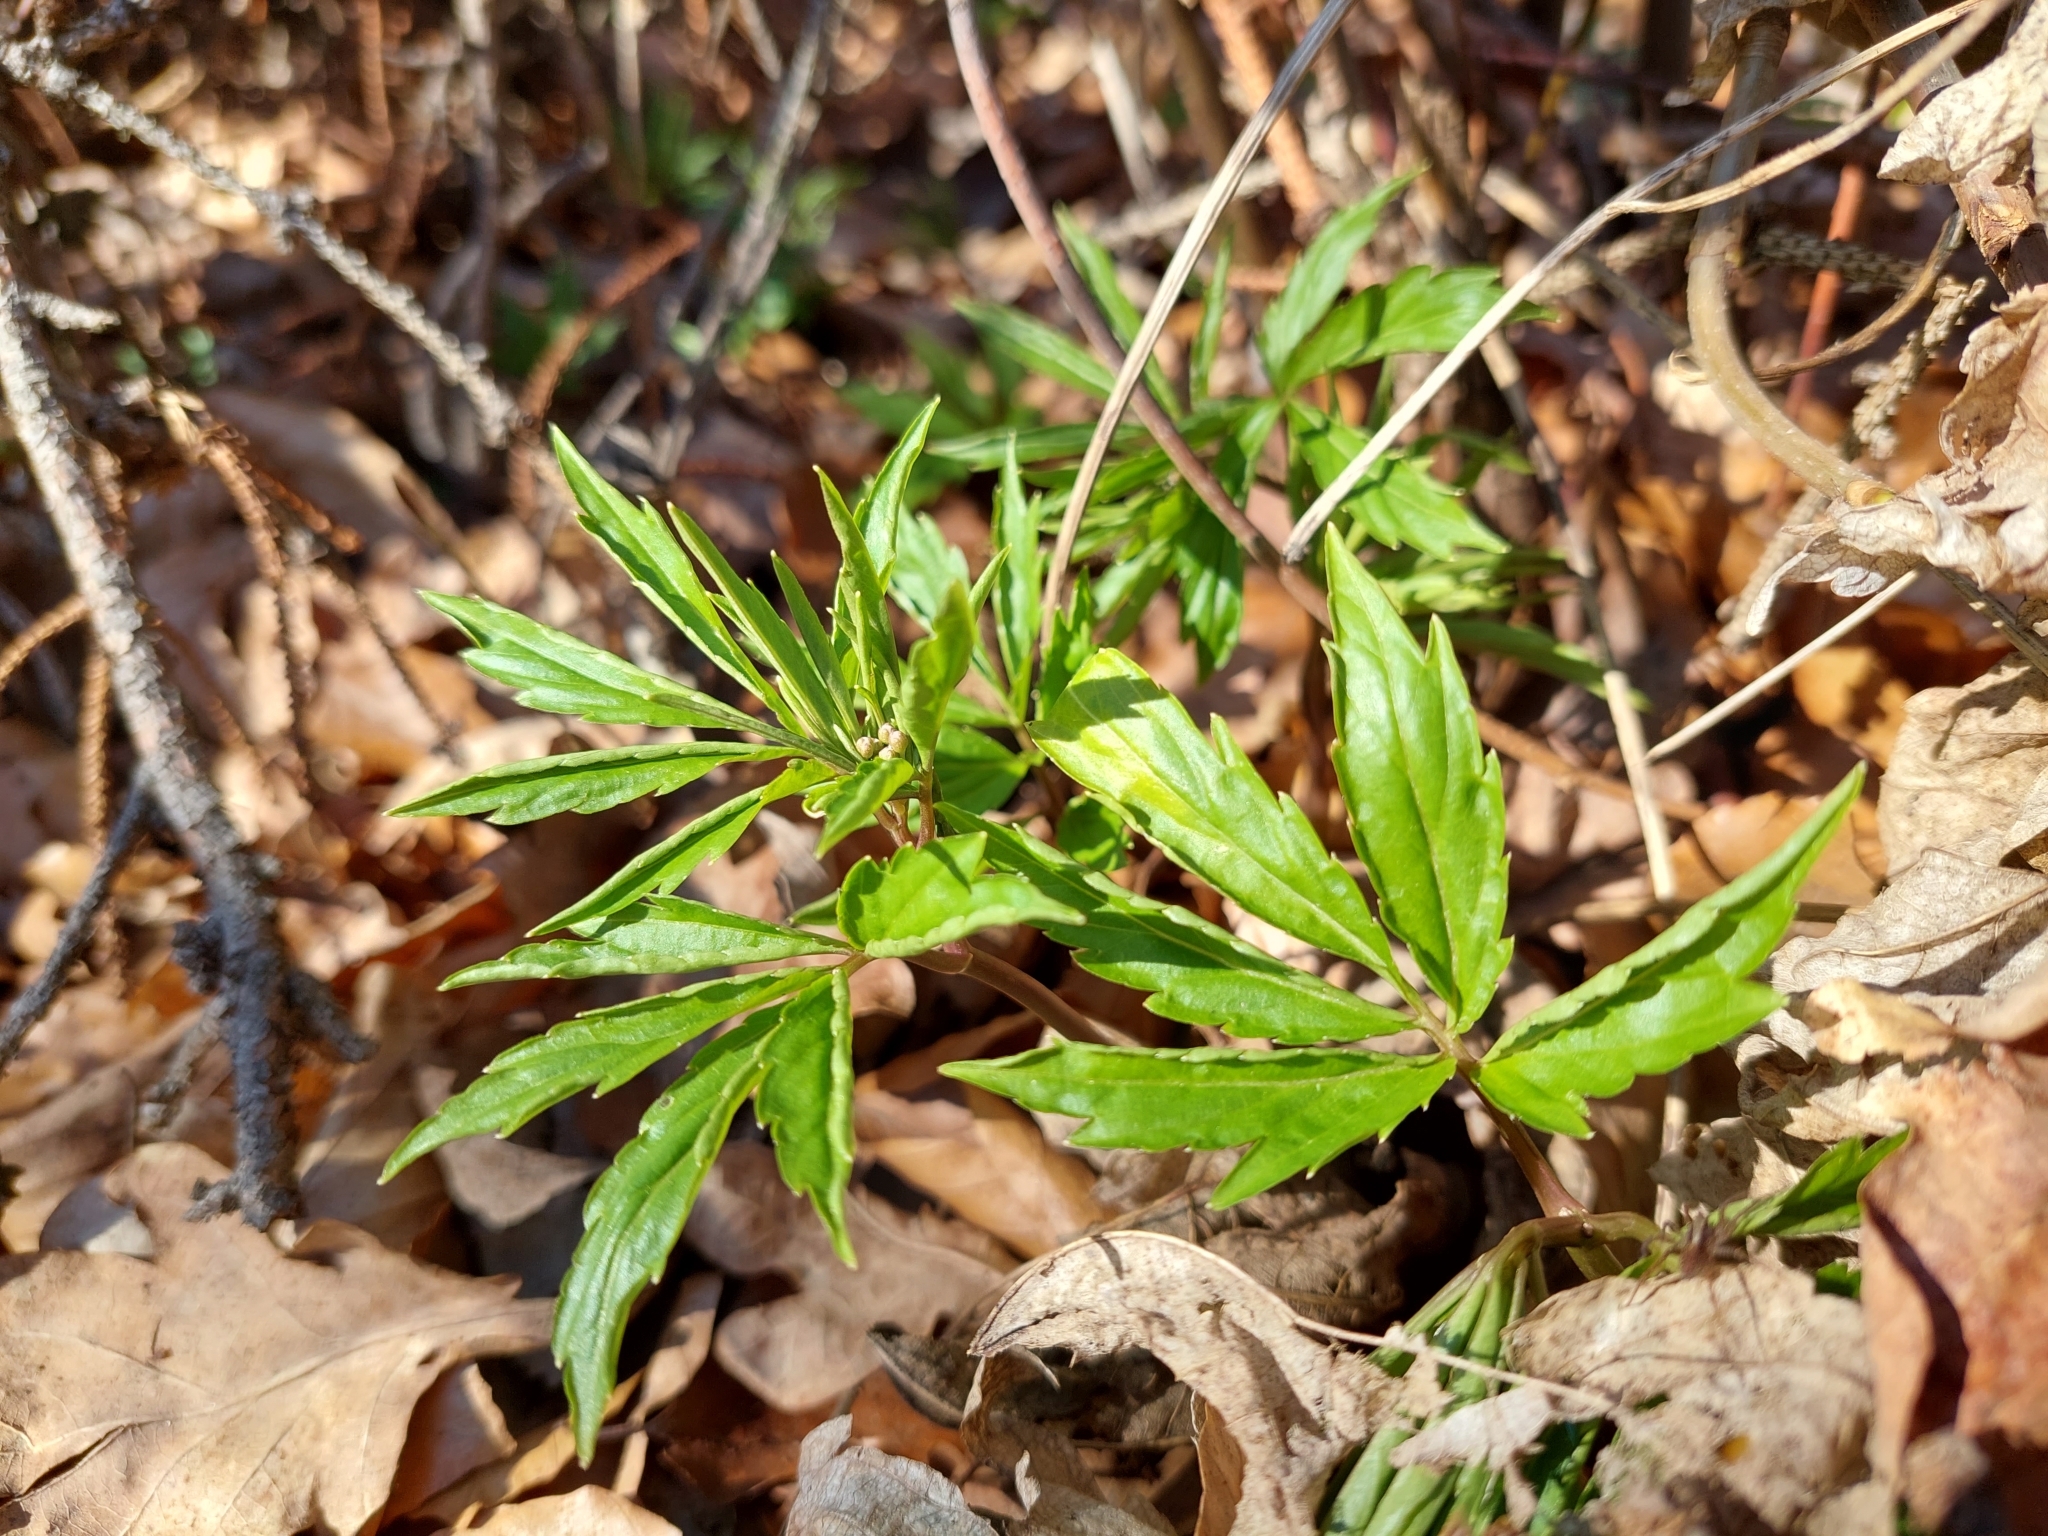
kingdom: Plantae
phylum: Tracheophyta
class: Magnoliopsida
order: Brassicales
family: Brassicaceae
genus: Cardamine
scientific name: Cardamine bulbifera
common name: Coralroot bittercress
